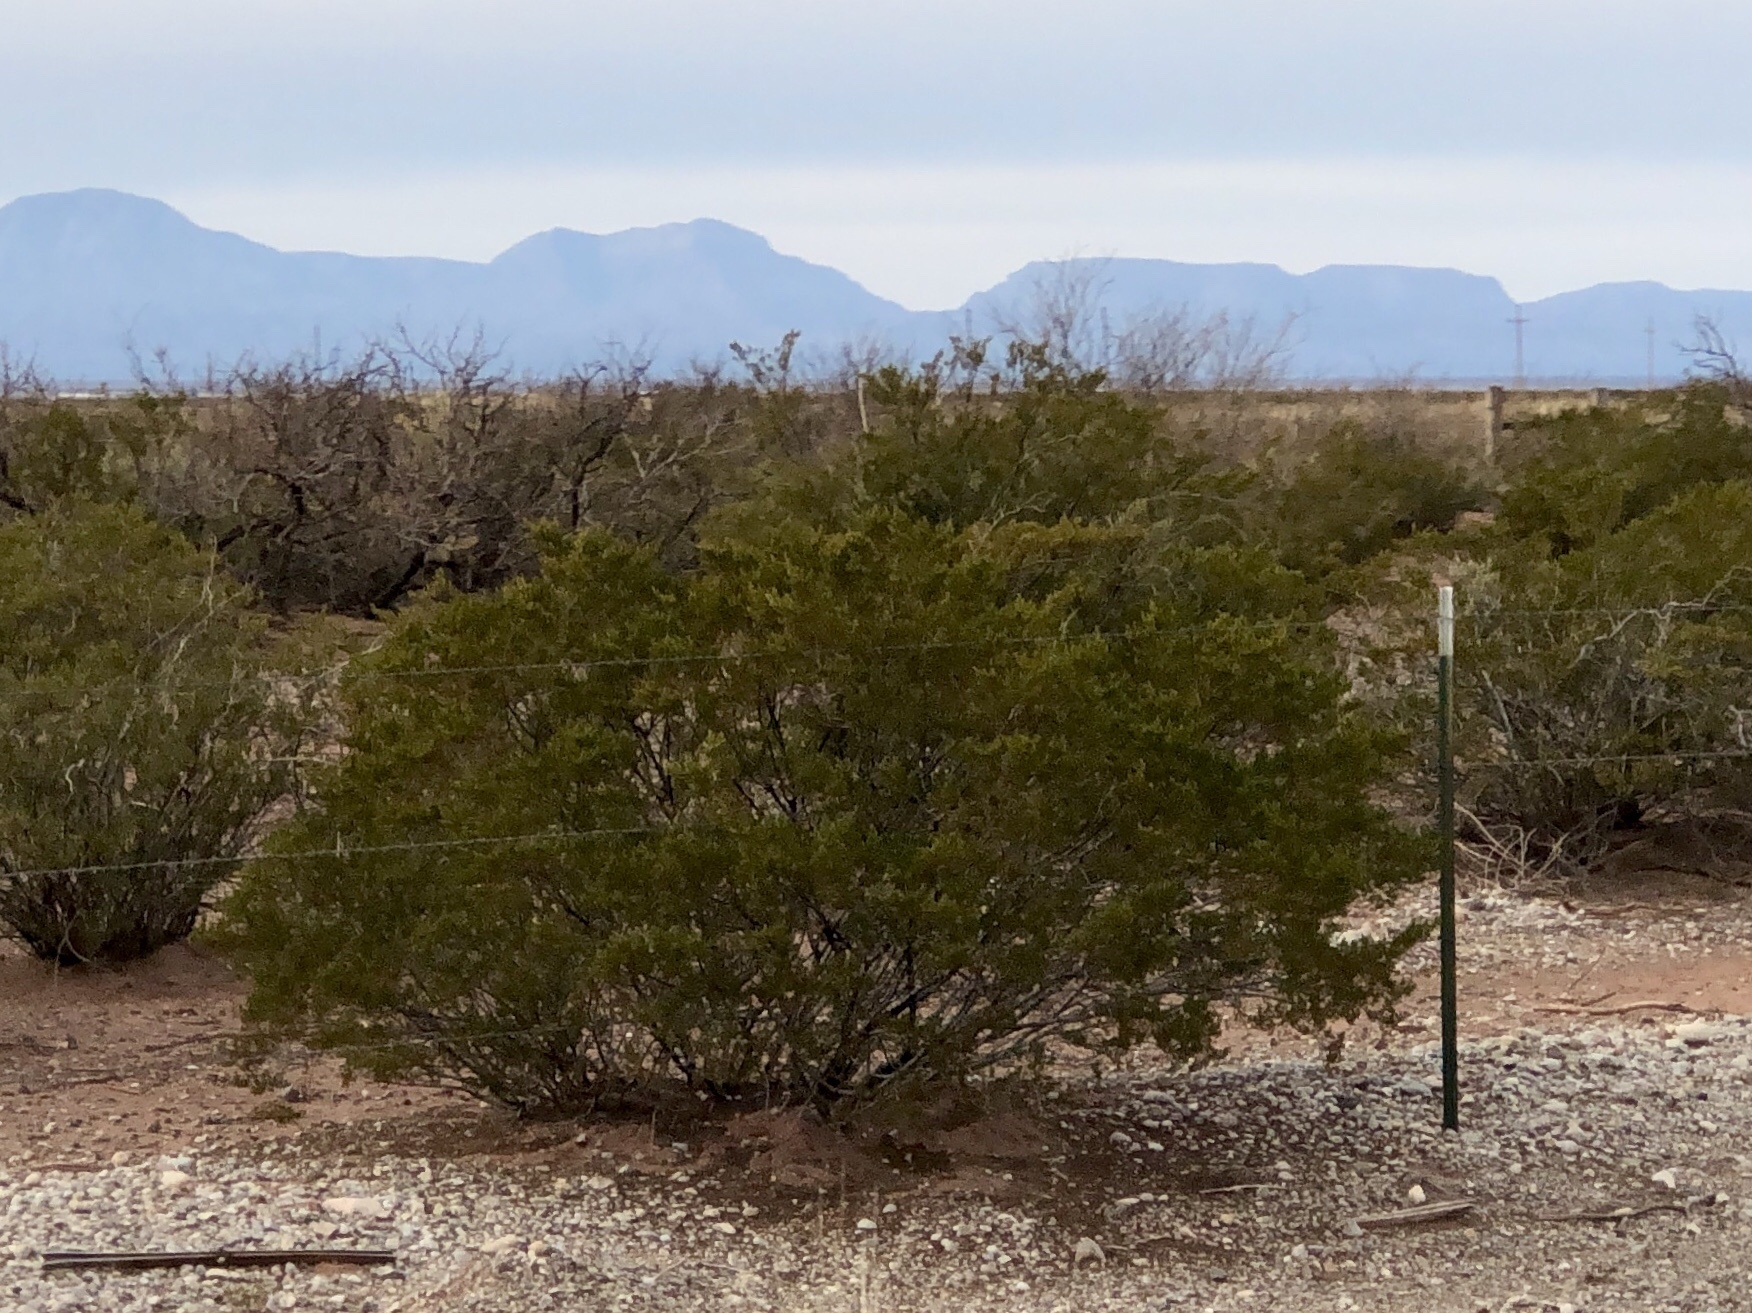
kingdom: Plantae
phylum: Tracheophyta
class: Magnoliopsida
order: Zygophyllales
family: Zygophyllaceae
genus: Larrea
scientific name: Larrea tridentata
